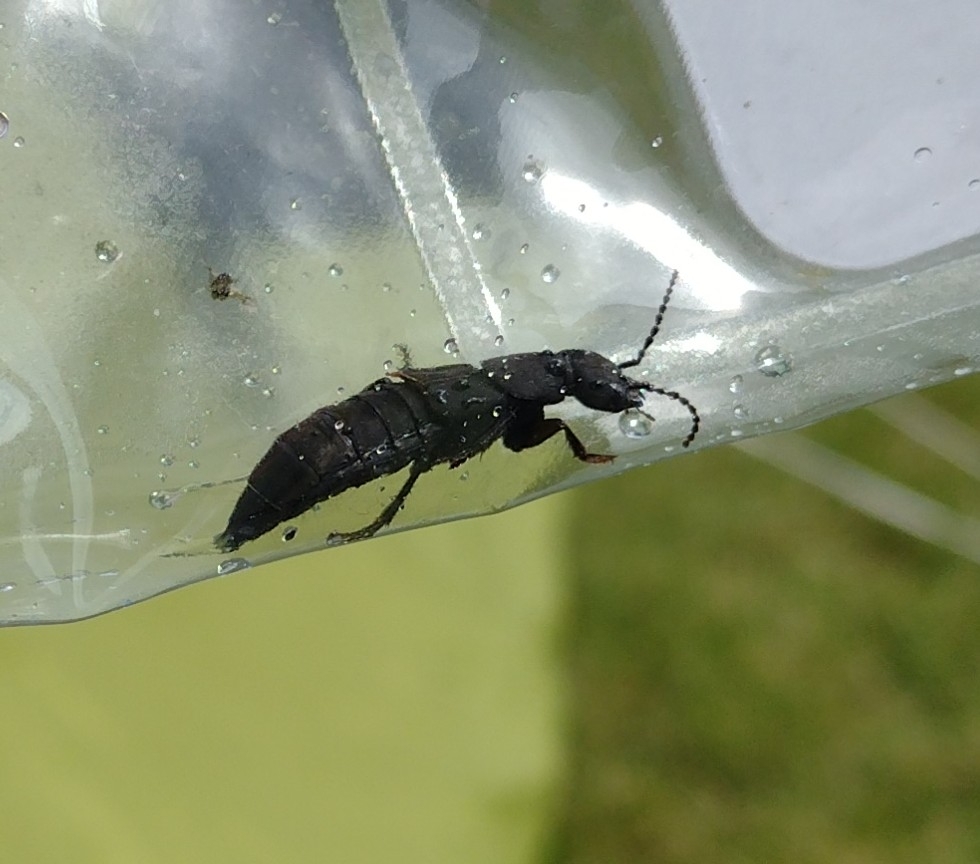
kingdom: Animalia
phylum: Arthropoda
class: Insecta
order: Coleoptera
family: Staphylinidae
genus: Ocypus
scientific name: Ocypus olens
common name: Devil's coach-horse
